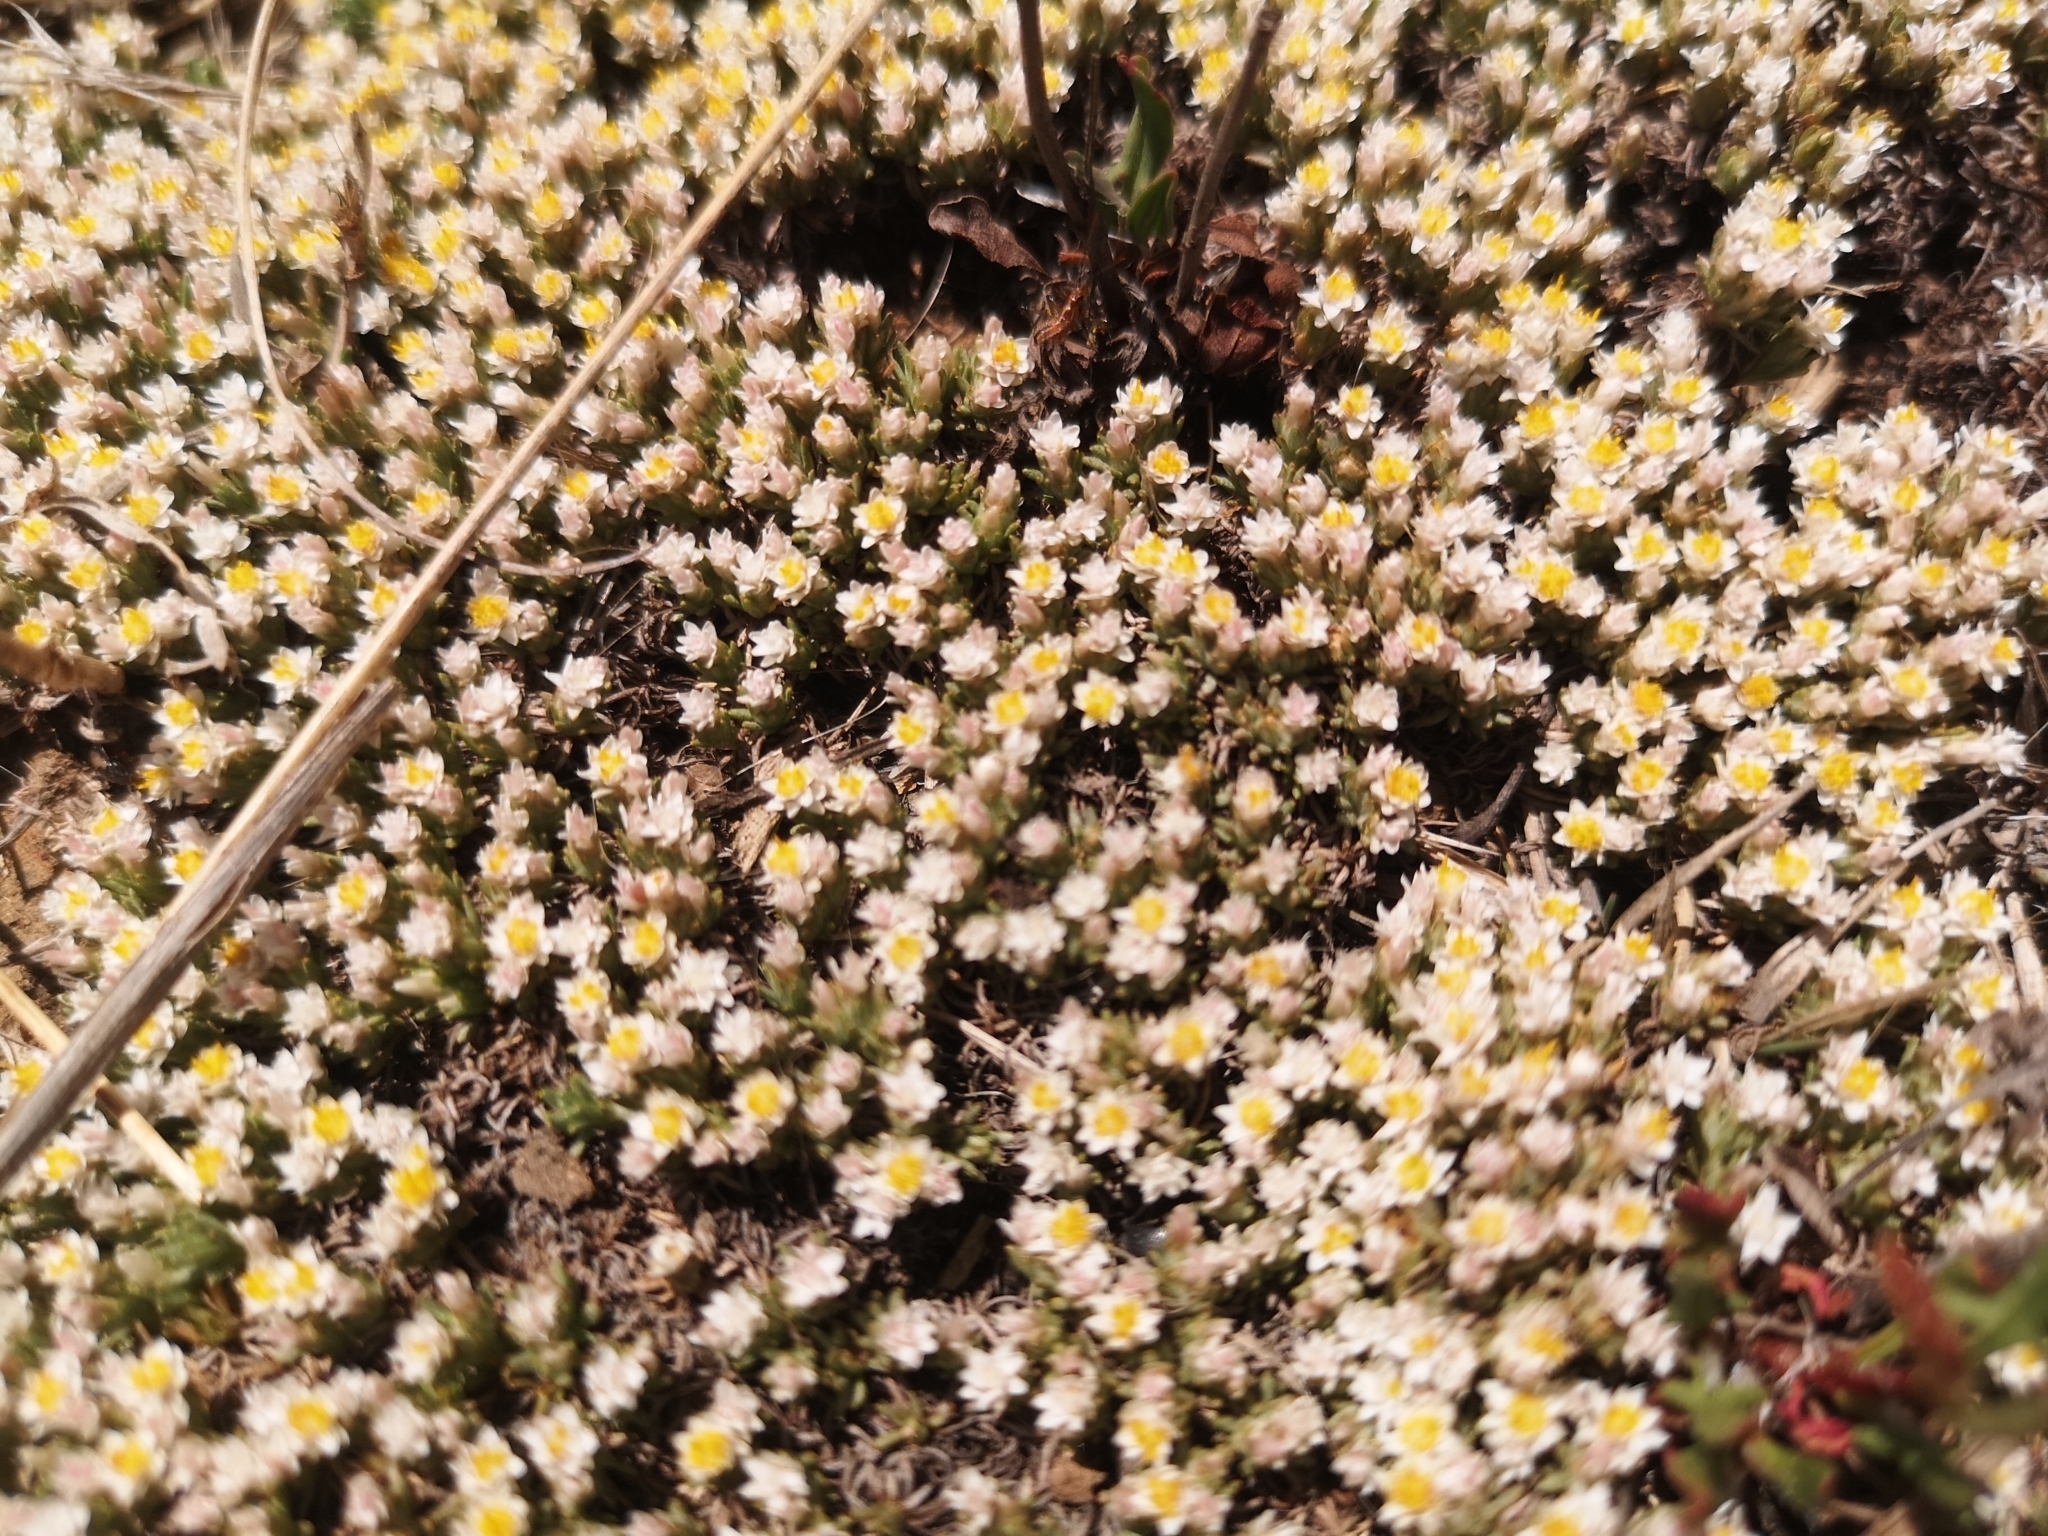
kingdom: Plantae
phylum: Tracheophyta
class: Magnoliopsida
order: Asterales
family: Asteraceae
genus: Helichrysum
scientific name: Helichrysum caespititium
